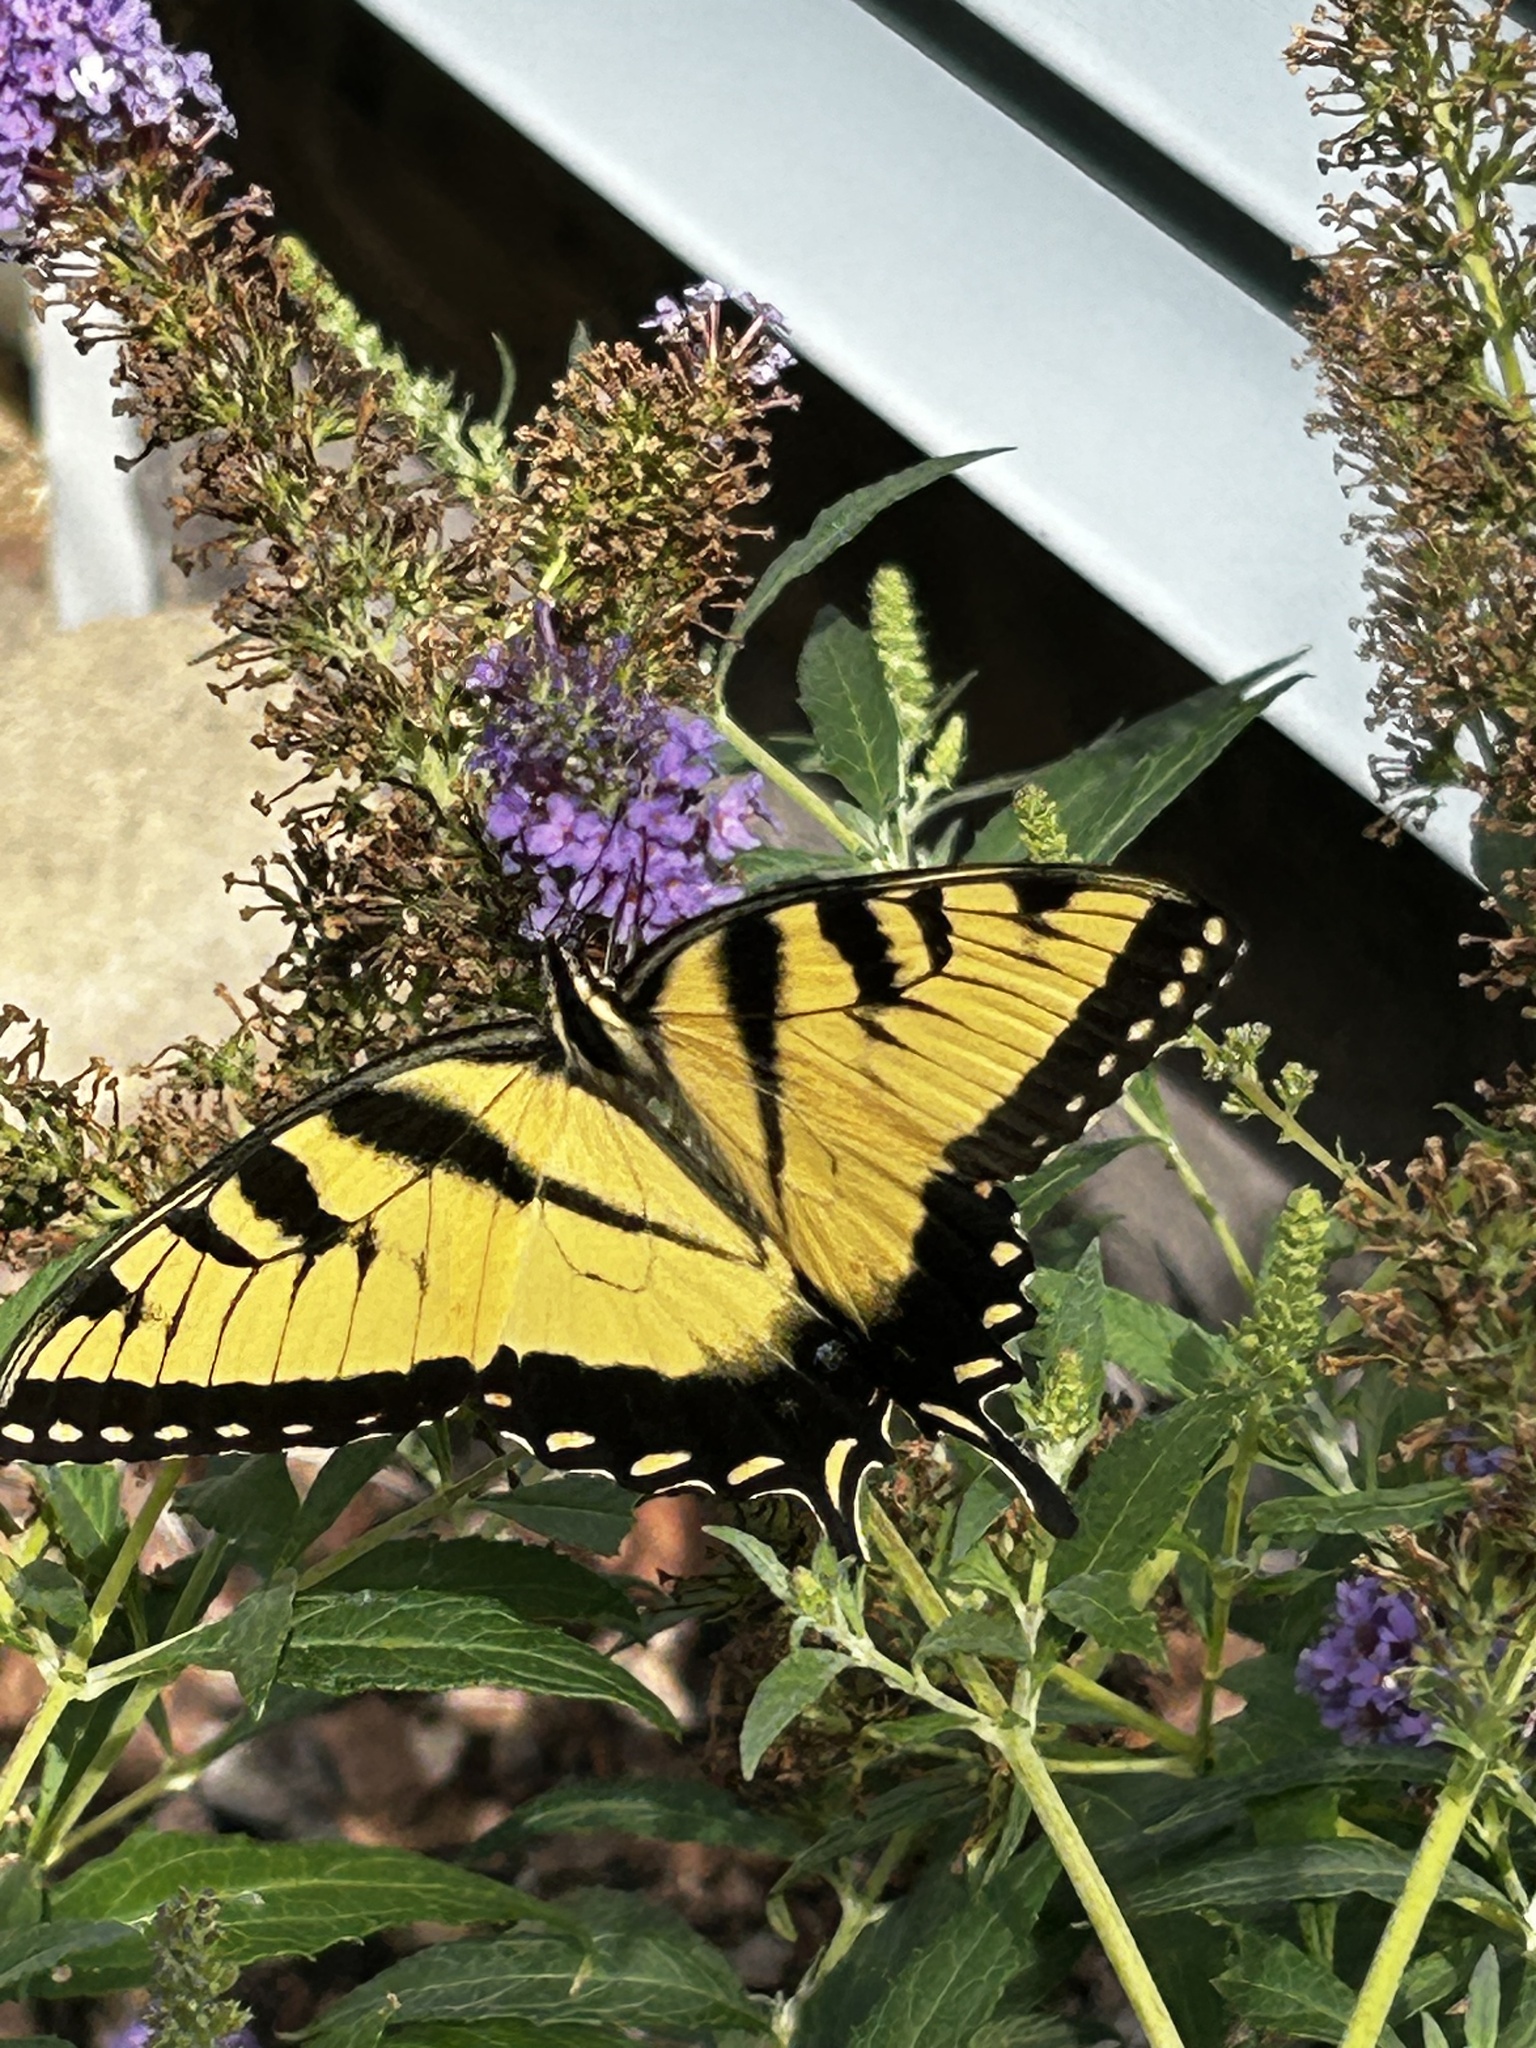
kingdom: Animalia
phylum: Arthropoda
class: Insecta
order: Lepidoptera
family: Papilionidae
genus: Papilio
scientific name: Papilio glaucus
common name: Tiger swallowtail
